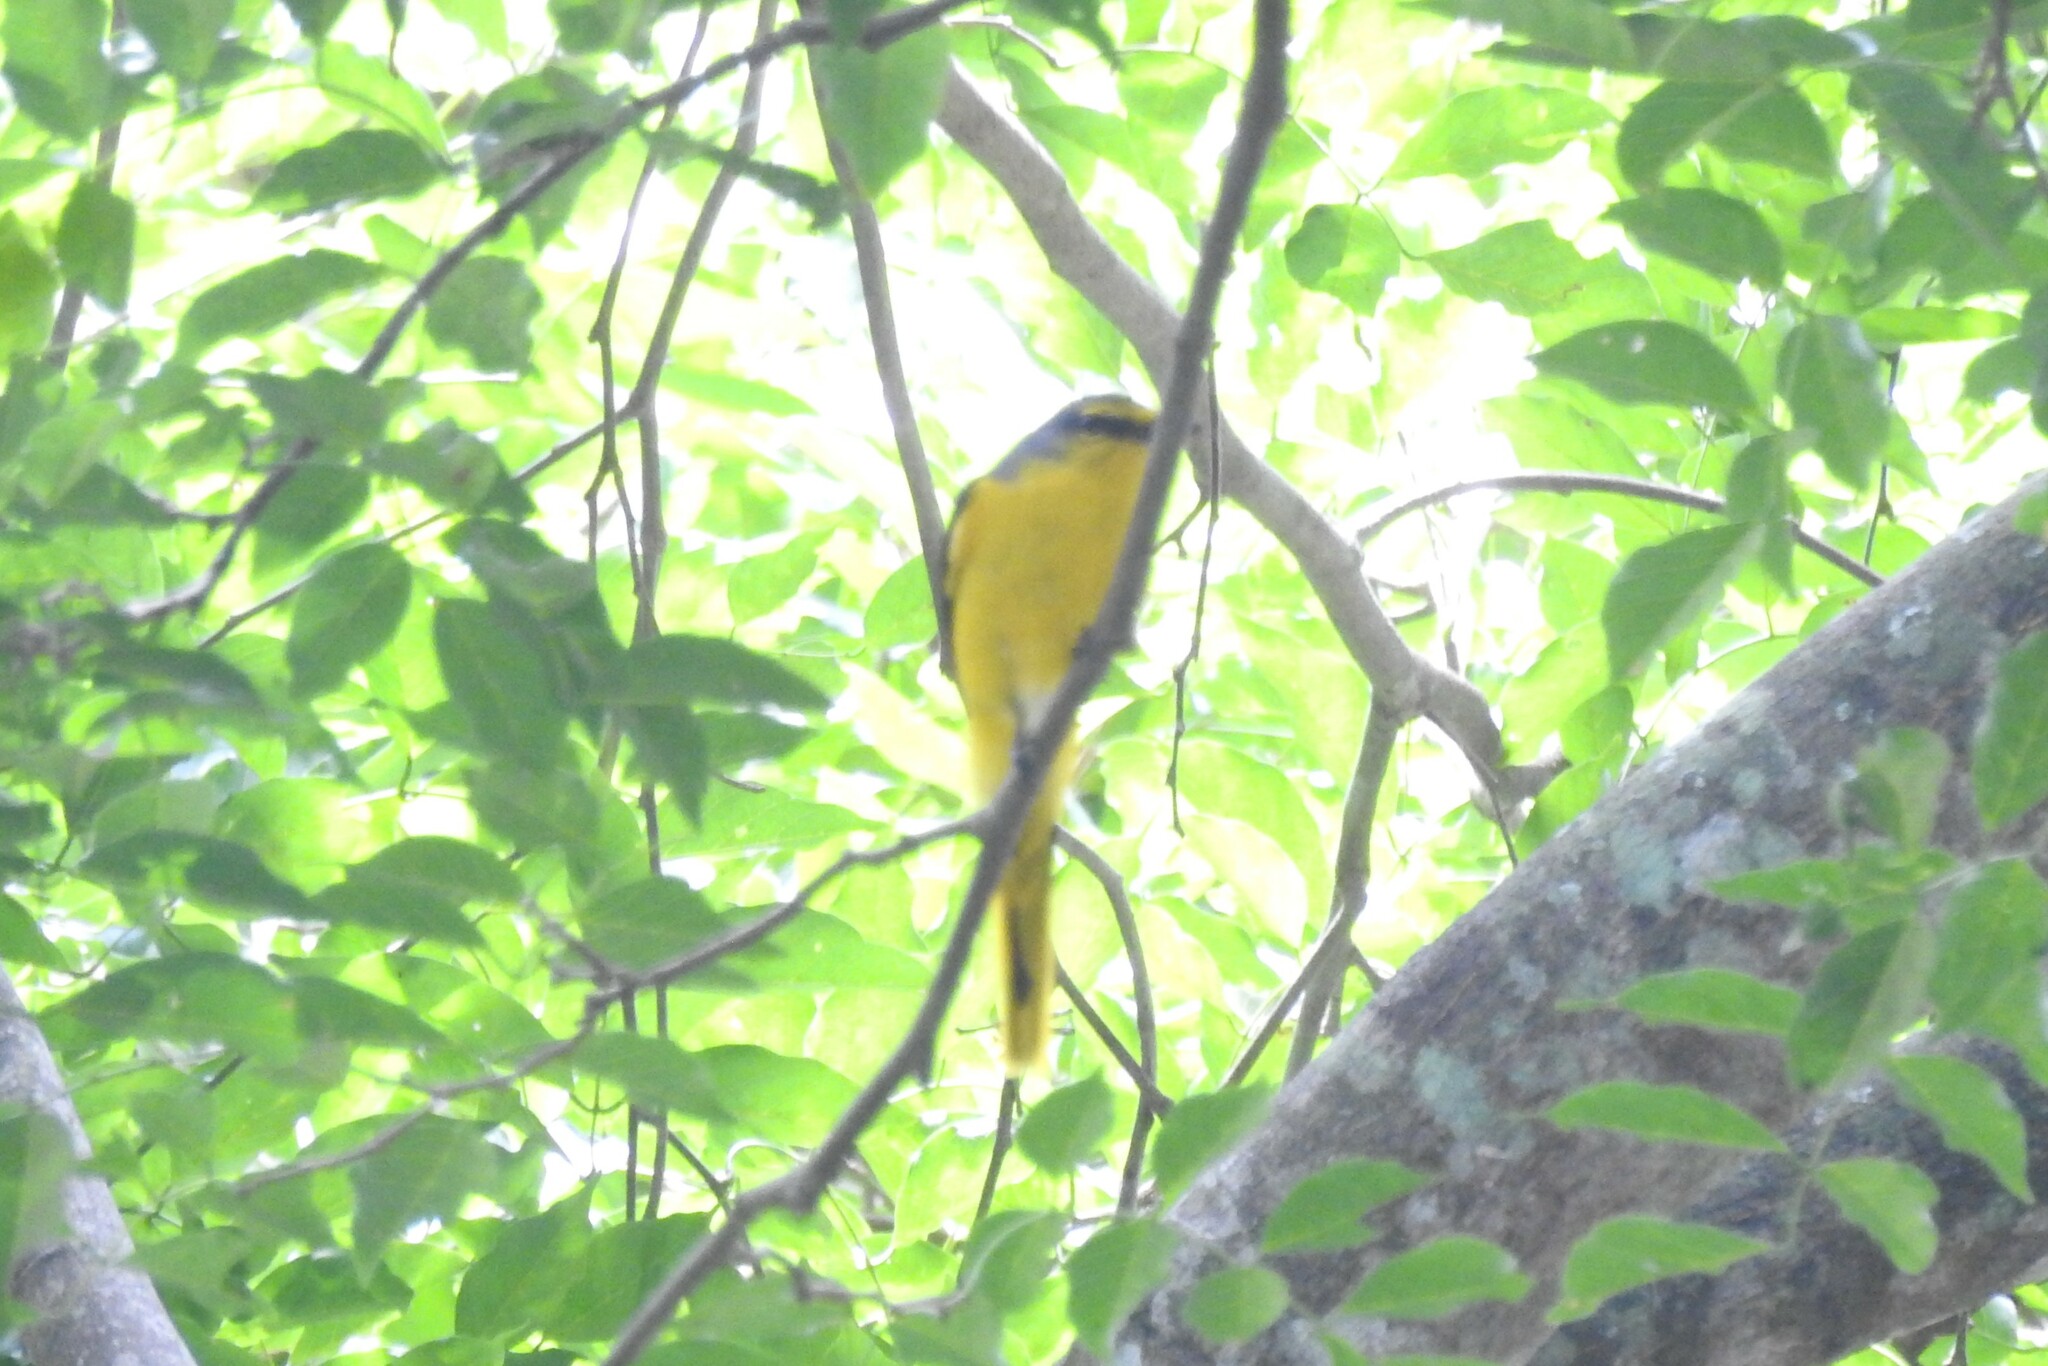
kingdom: Animalia
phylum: Chordata
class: Aves
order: Passeriformes
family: Campephagidae
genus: Pericrocotus
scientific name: Pericrocotus flammeus
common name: Orange minivet
